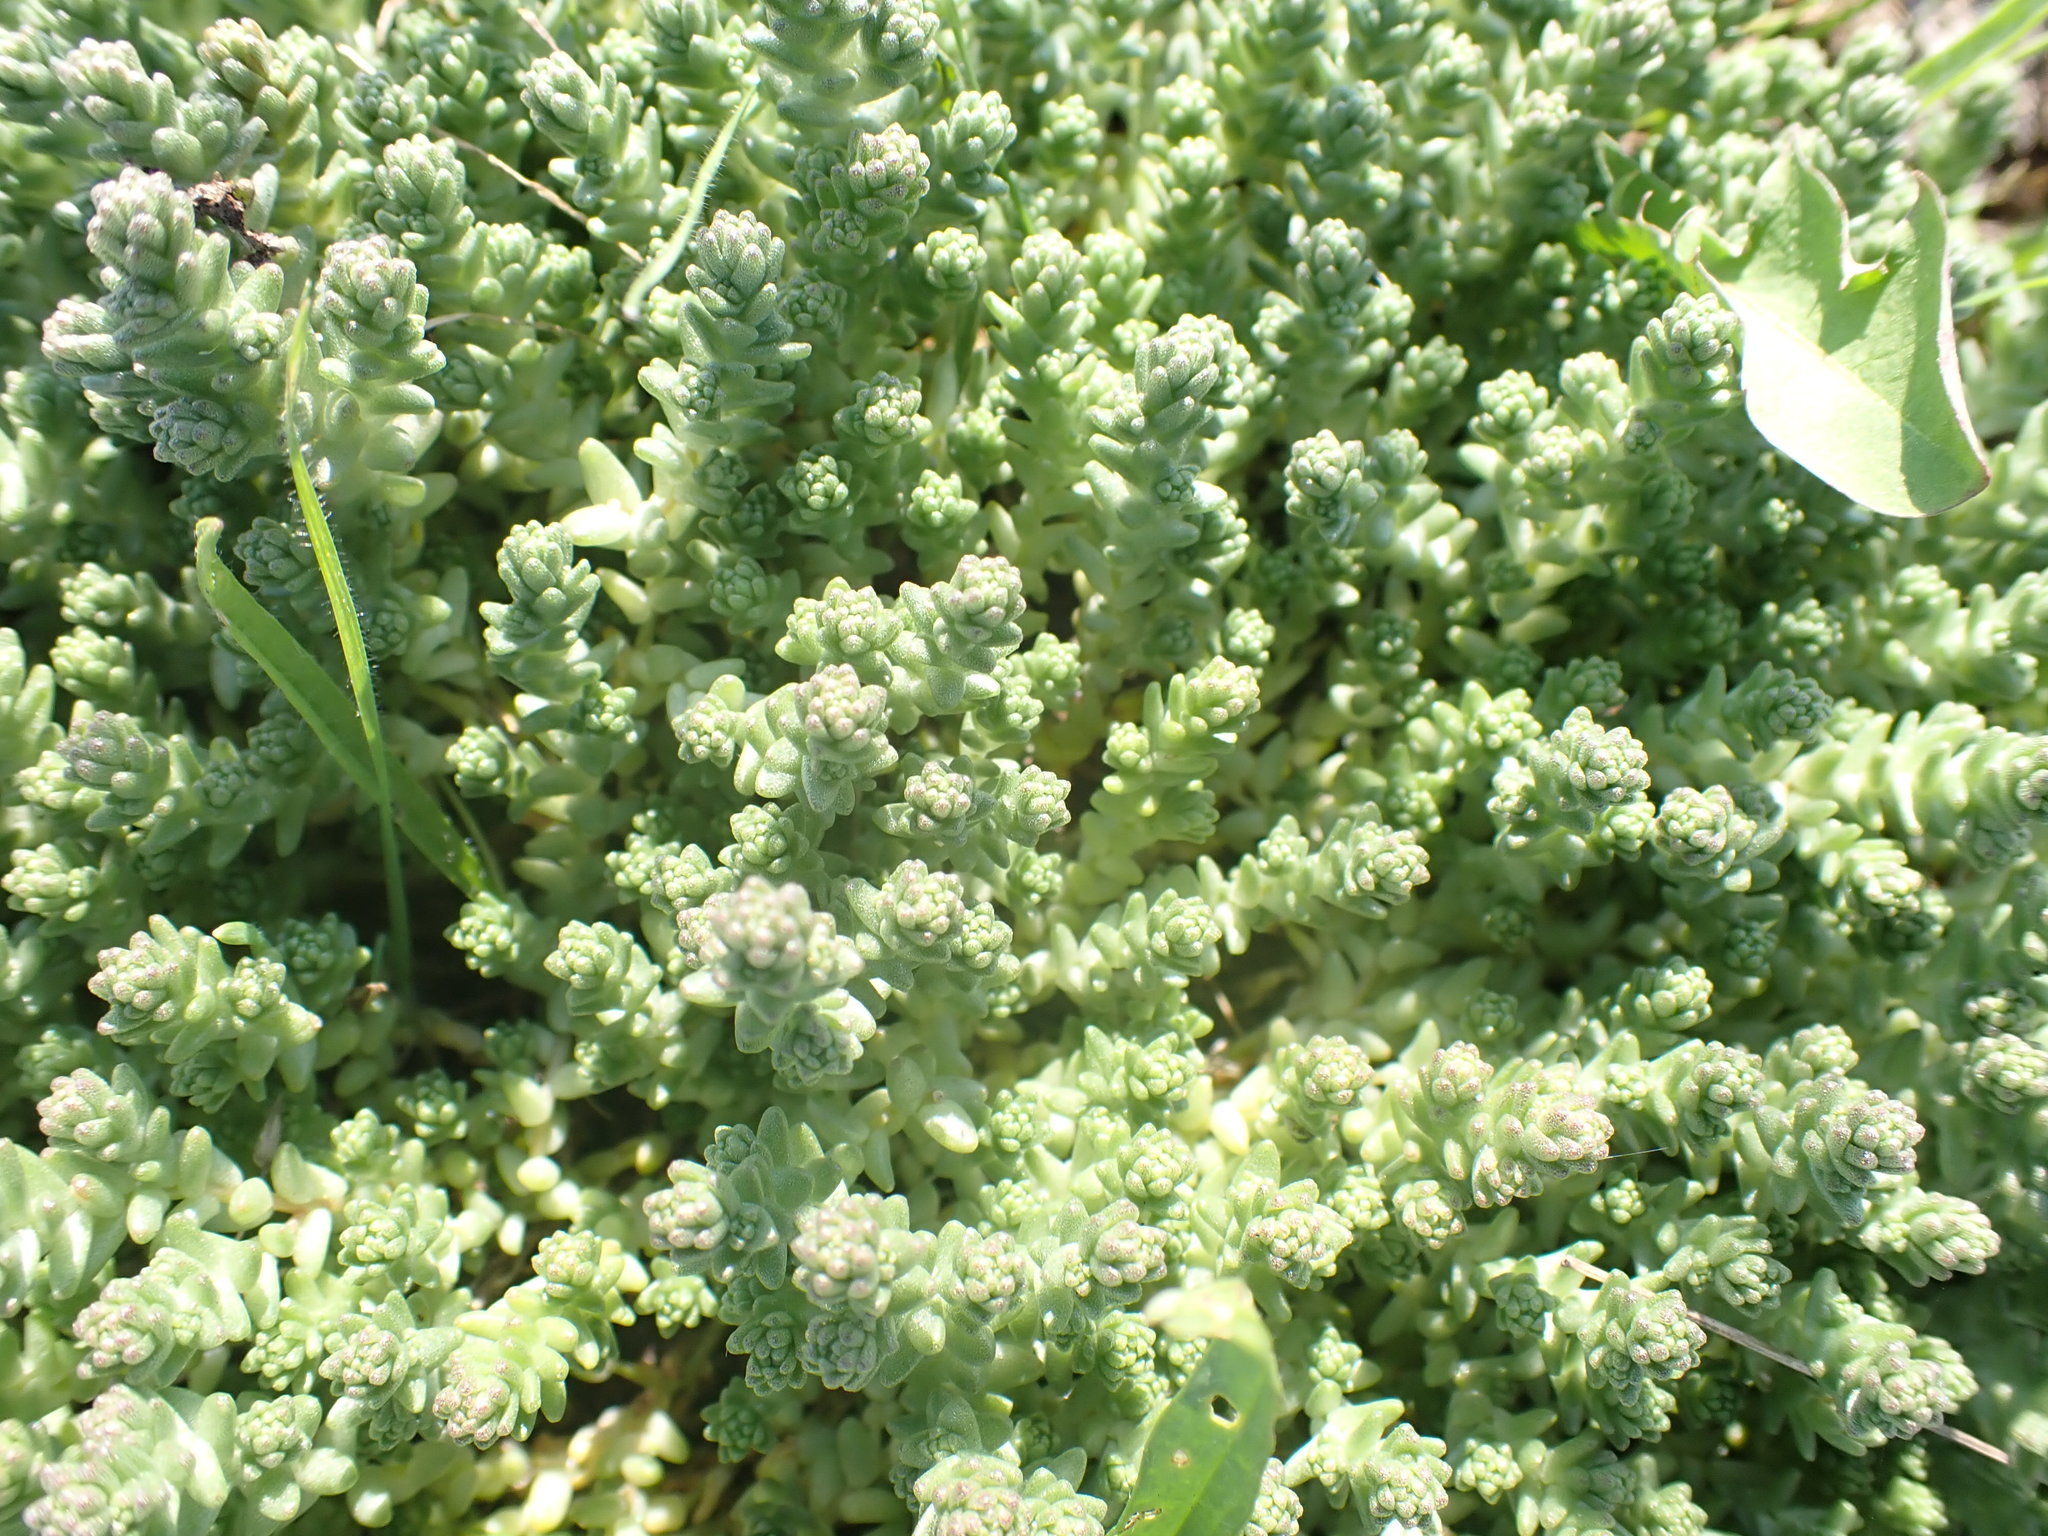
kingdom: Plantae
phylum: Tracheophyta
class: Magnoliopsida
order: Saxifragales
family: Crassulaceae
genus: Sedum
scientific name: Sedum acre
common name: Biting stonecrop
